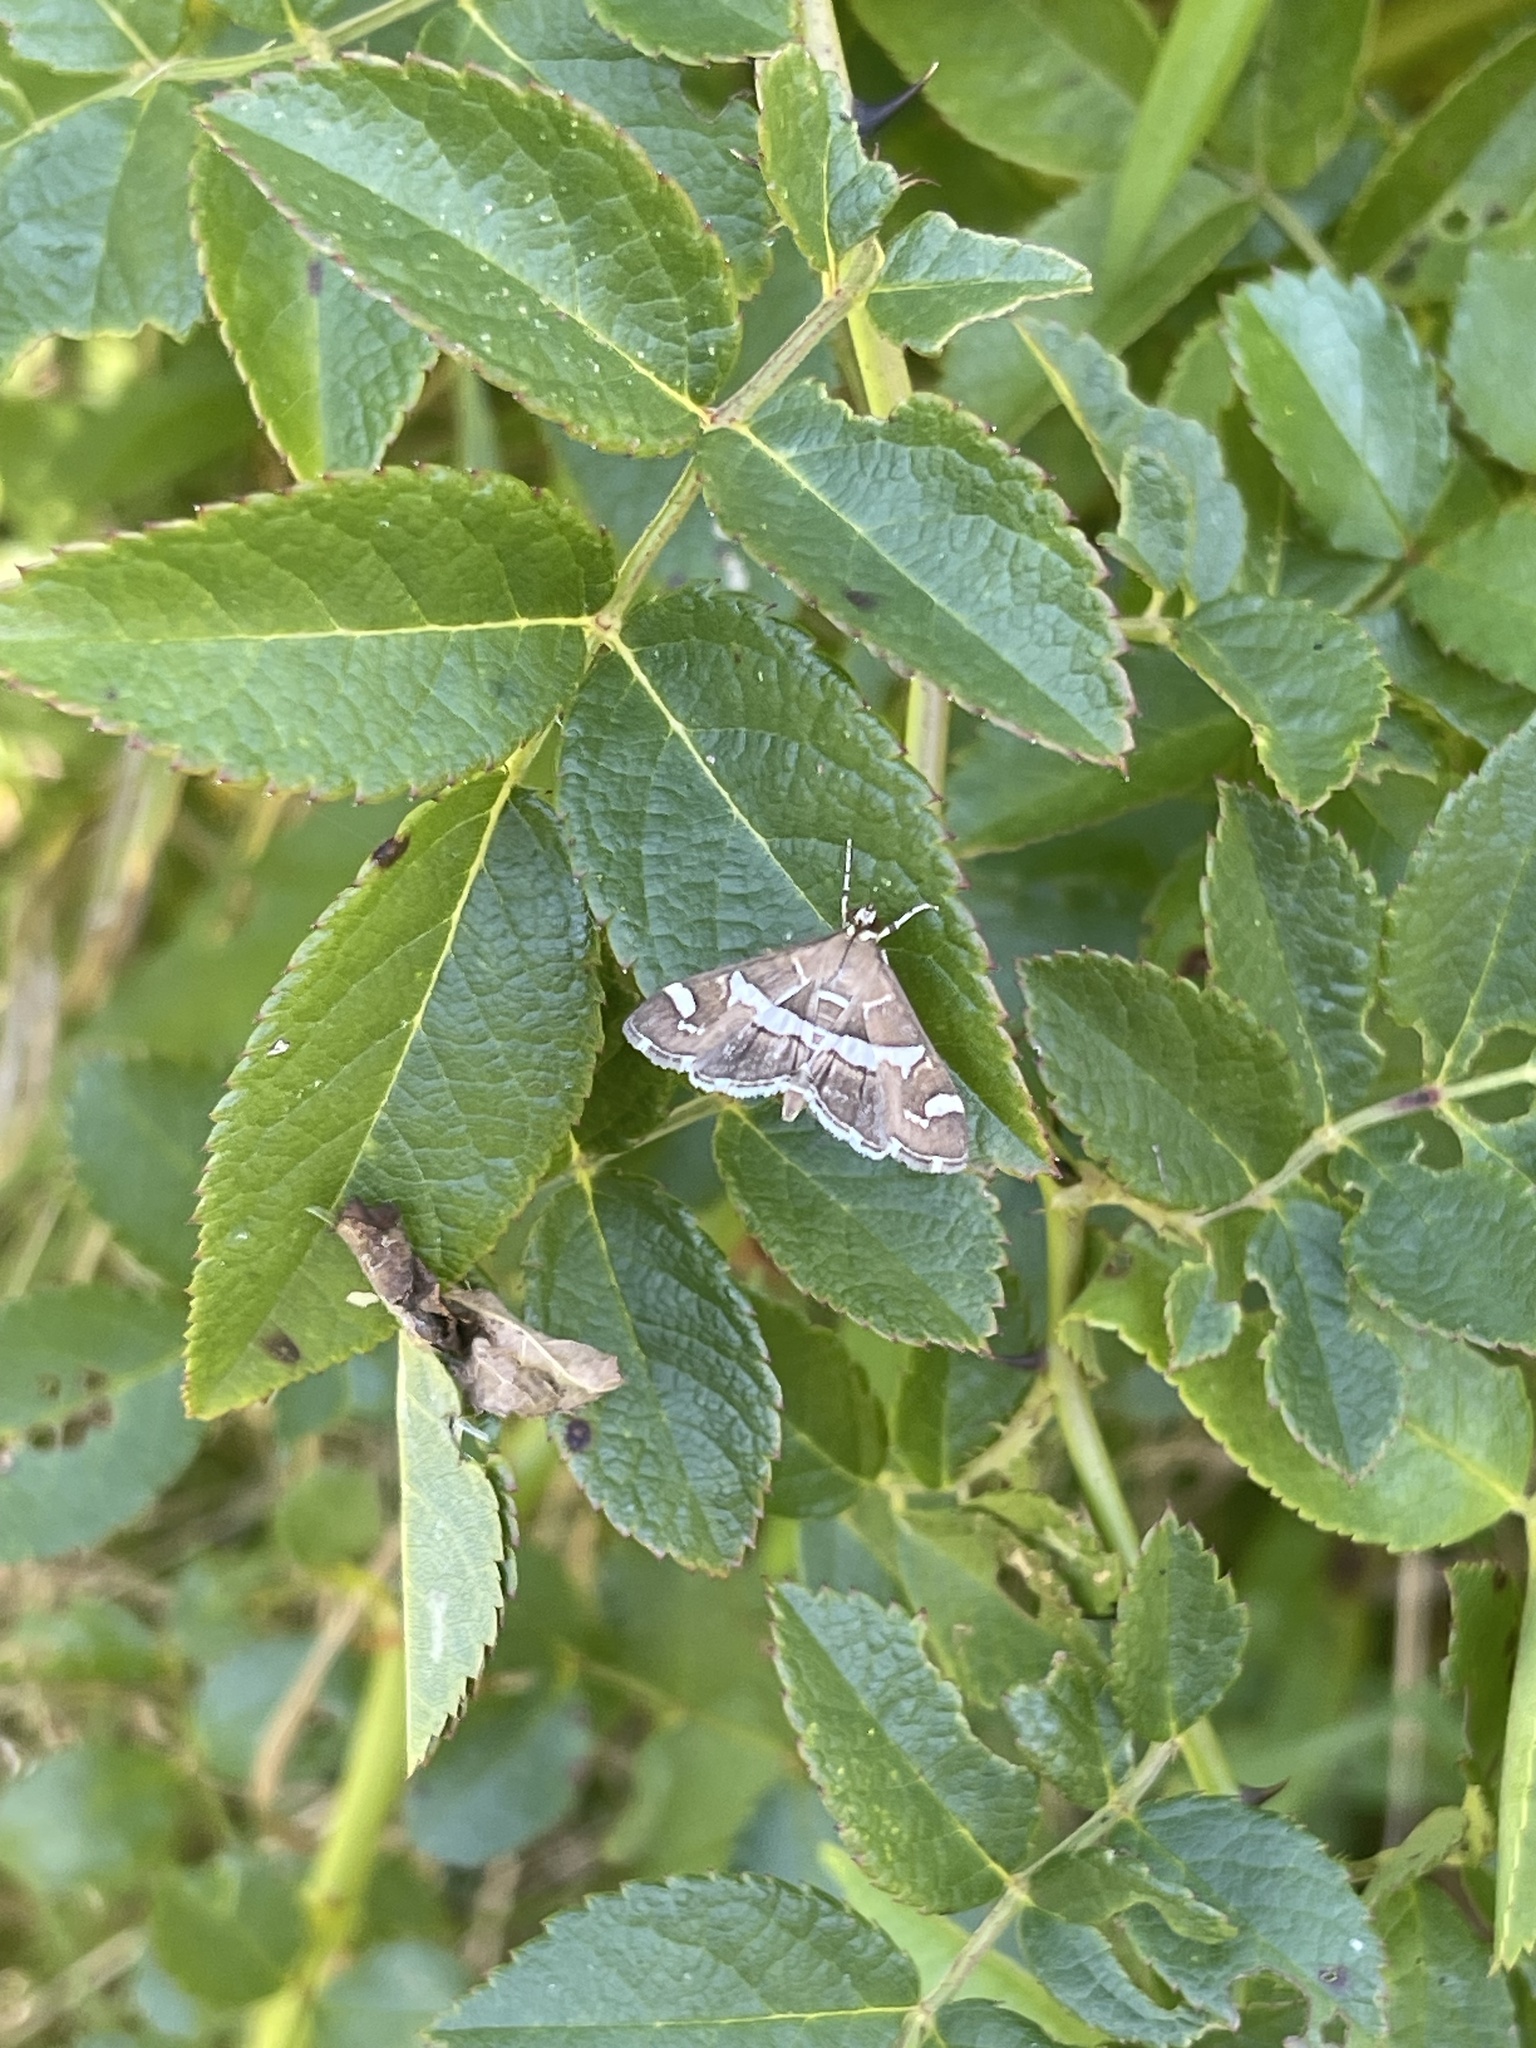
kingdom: Animalia
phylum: Arthropoda
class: Insecta
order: Lepidoptera
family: Crambidae
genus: Spoladea
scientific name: Spoladea recurvalis
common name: Beet webworm moth
